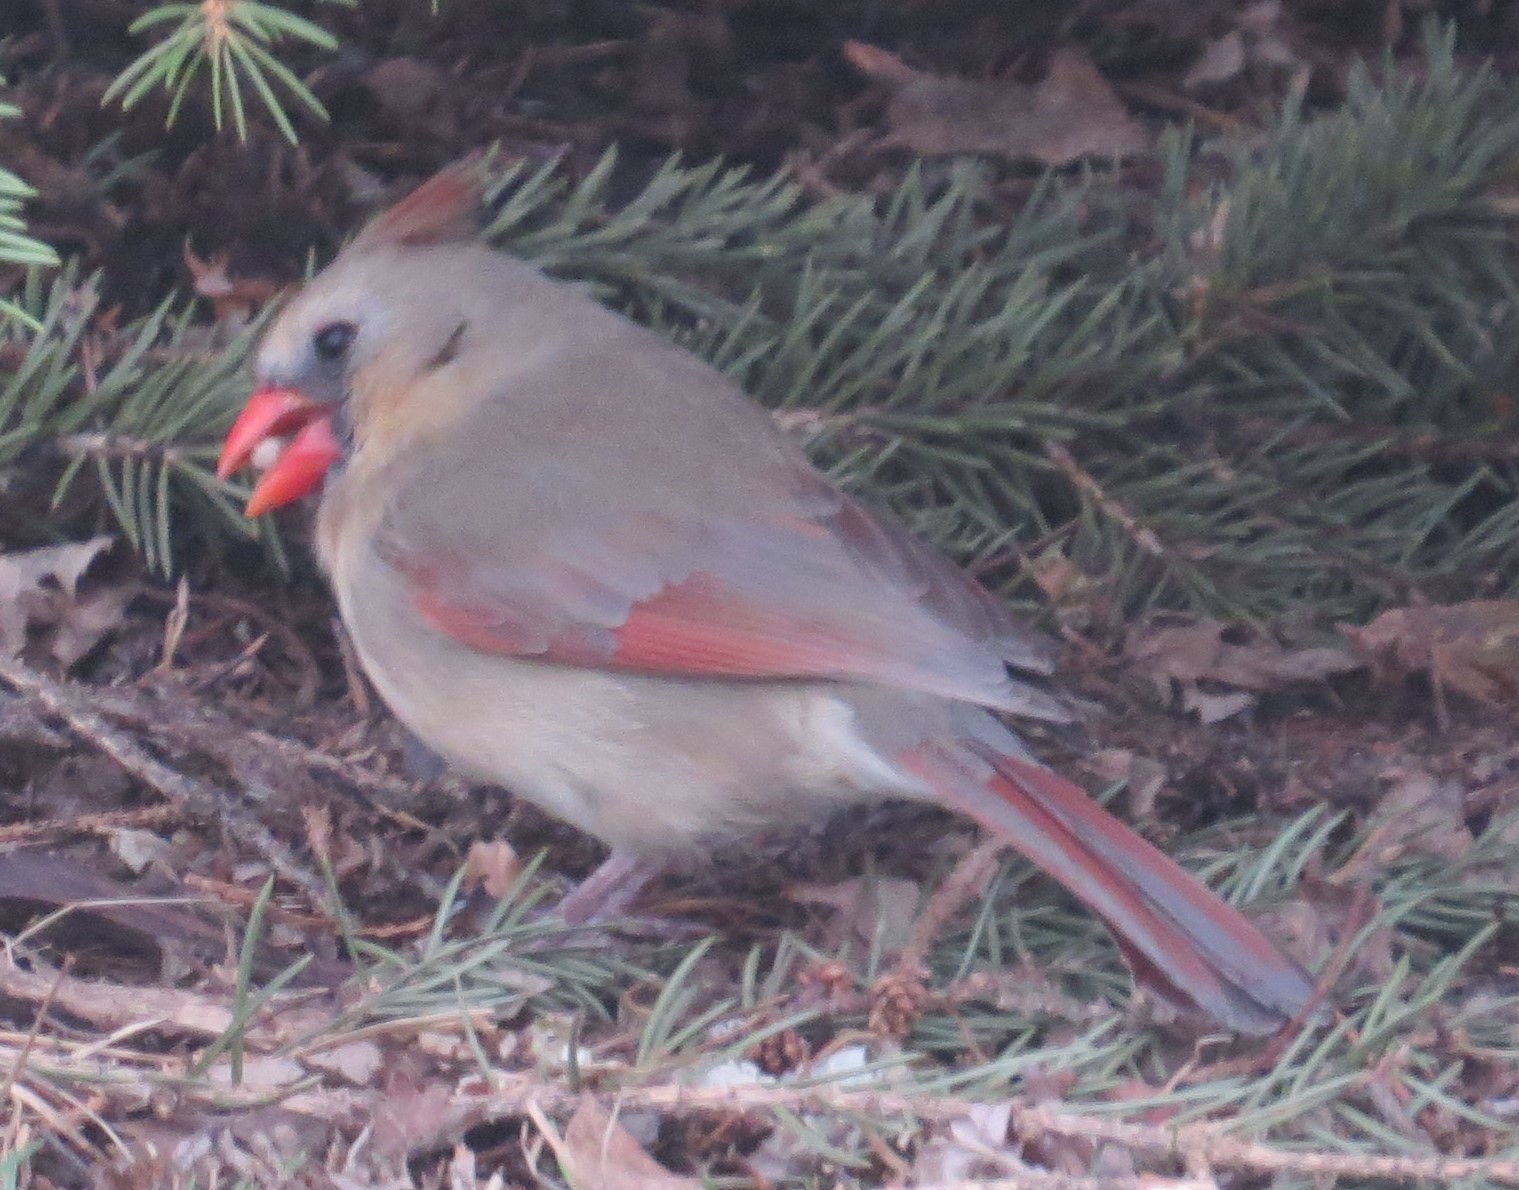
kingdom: Animalia
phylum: Chordata
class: Aves
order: Passeriformes
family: Cardinalidae
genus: Cardinalis
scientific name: Cardinalis cardinalis
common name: Northern cardinal
